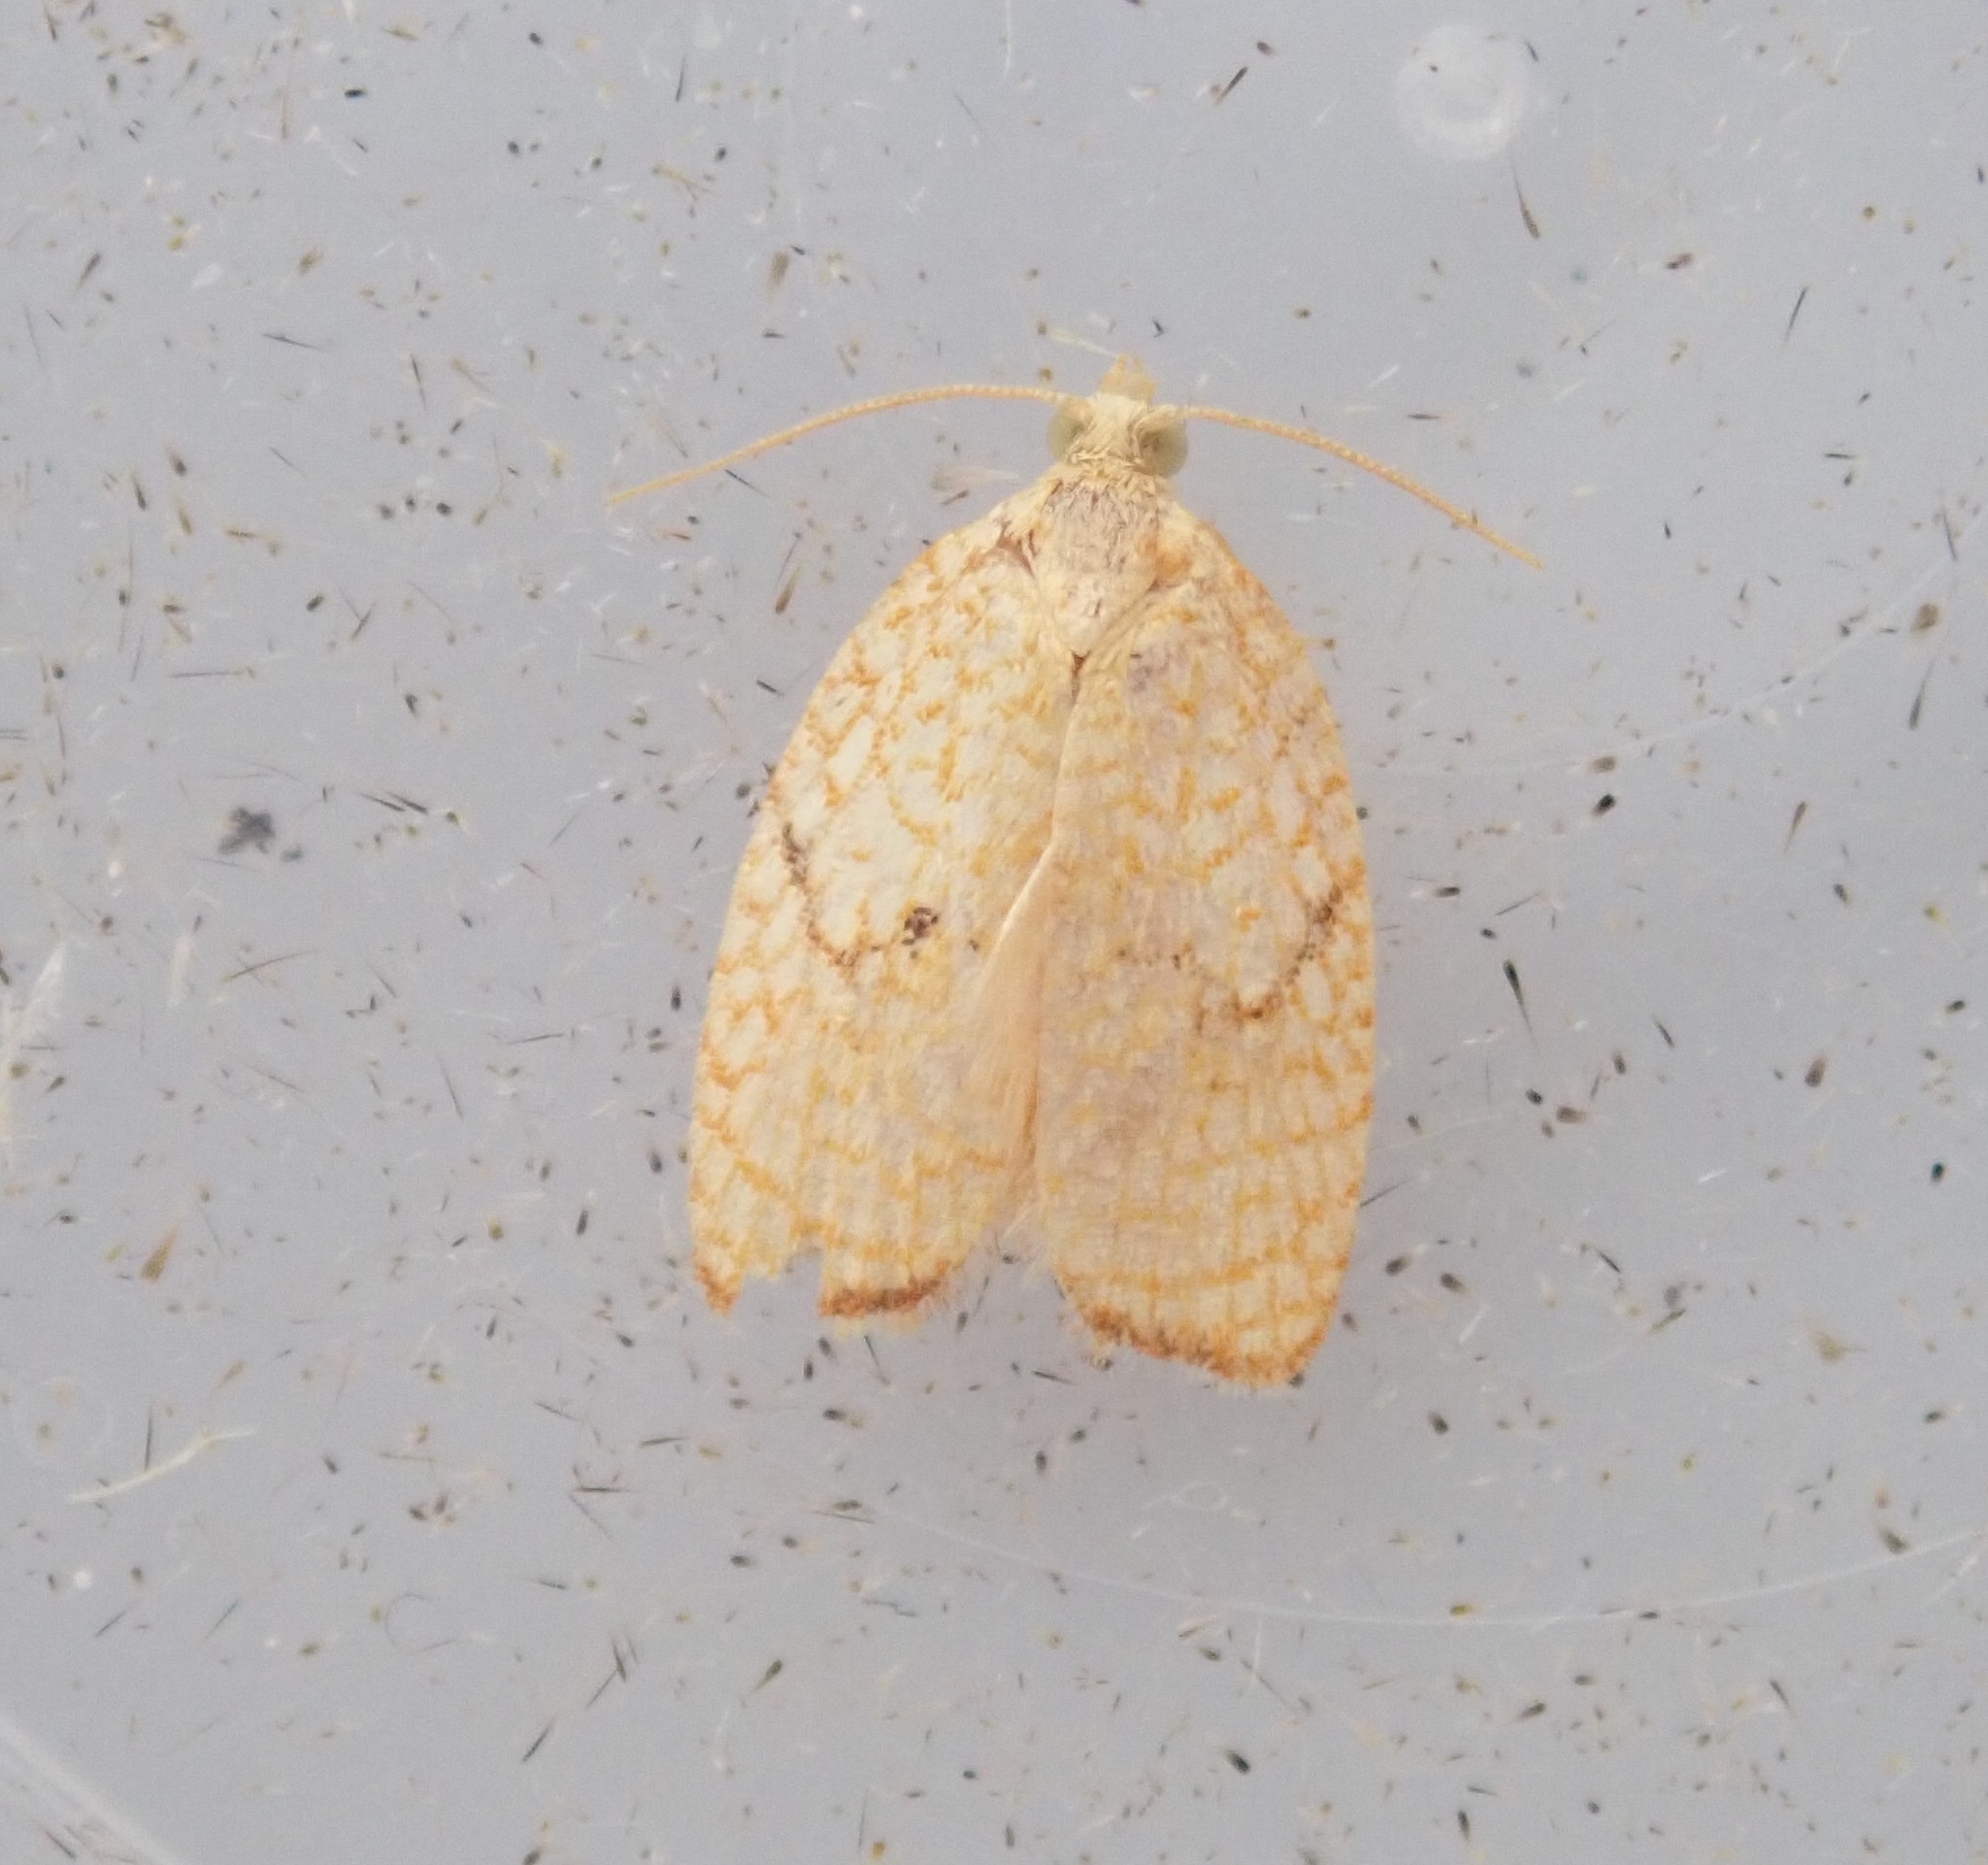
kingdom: Animalia
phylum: Arthropoda
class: Insecta
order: Lepidoptera
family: Tortricidae
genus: Acleris
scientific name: Acleris forsskaleana
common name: Maple button
